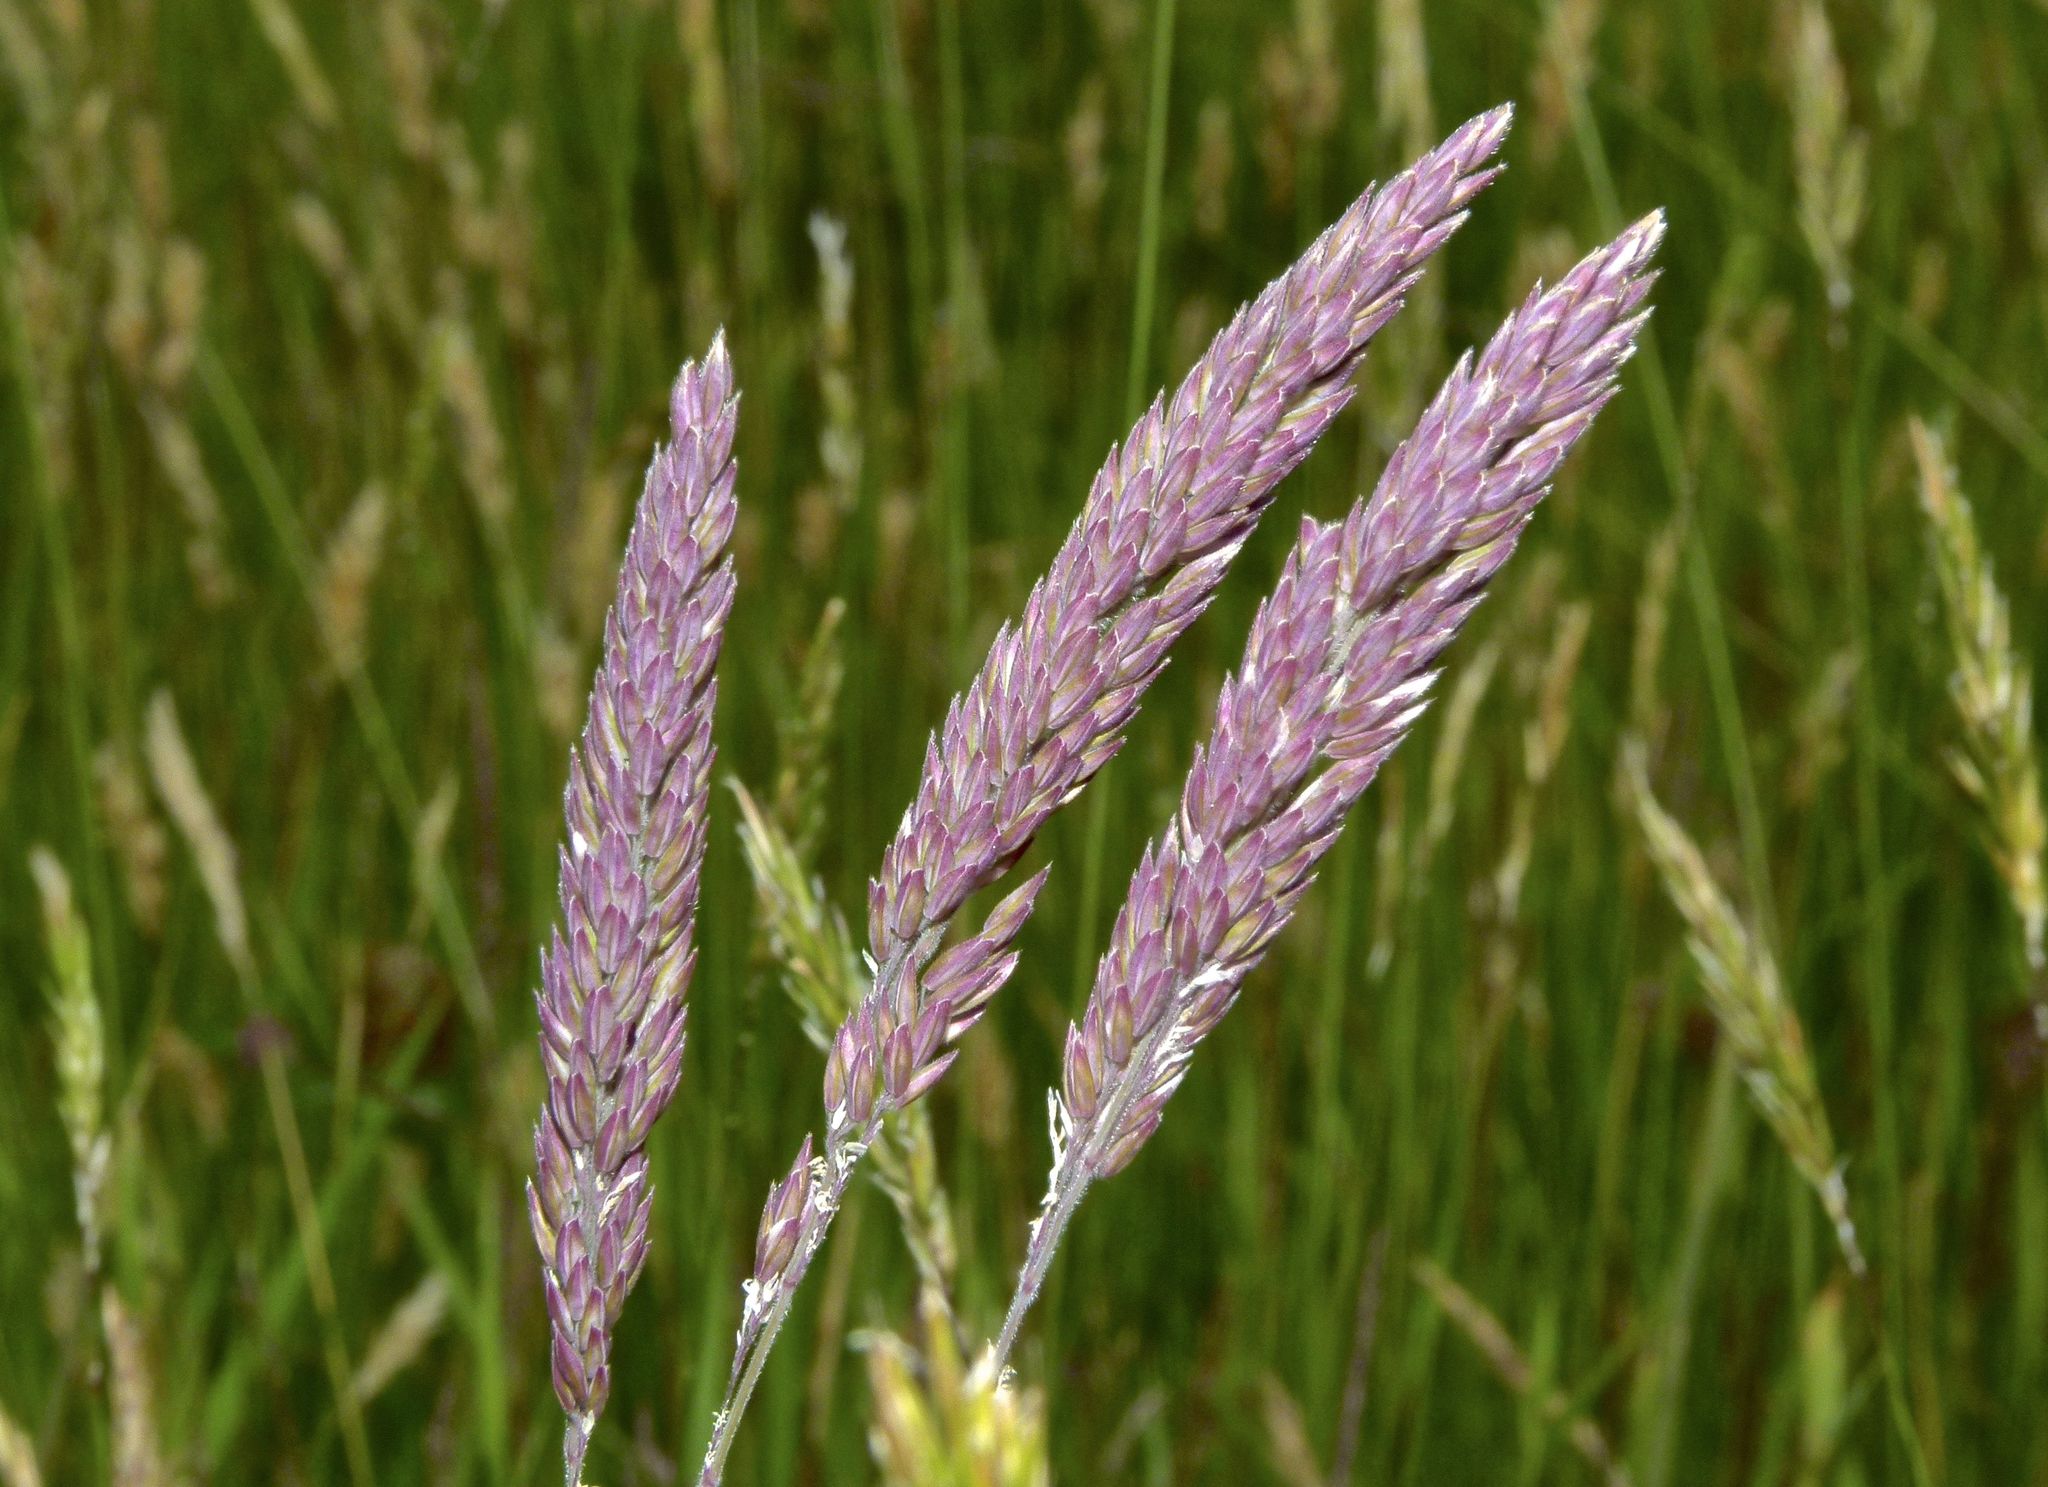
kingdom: Plantae
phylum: Tracheophyta
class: Liliopsida
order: Poales
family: Poaceae
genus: Holcus
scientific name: Holcus lanatus
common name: Yorkshire-fog
